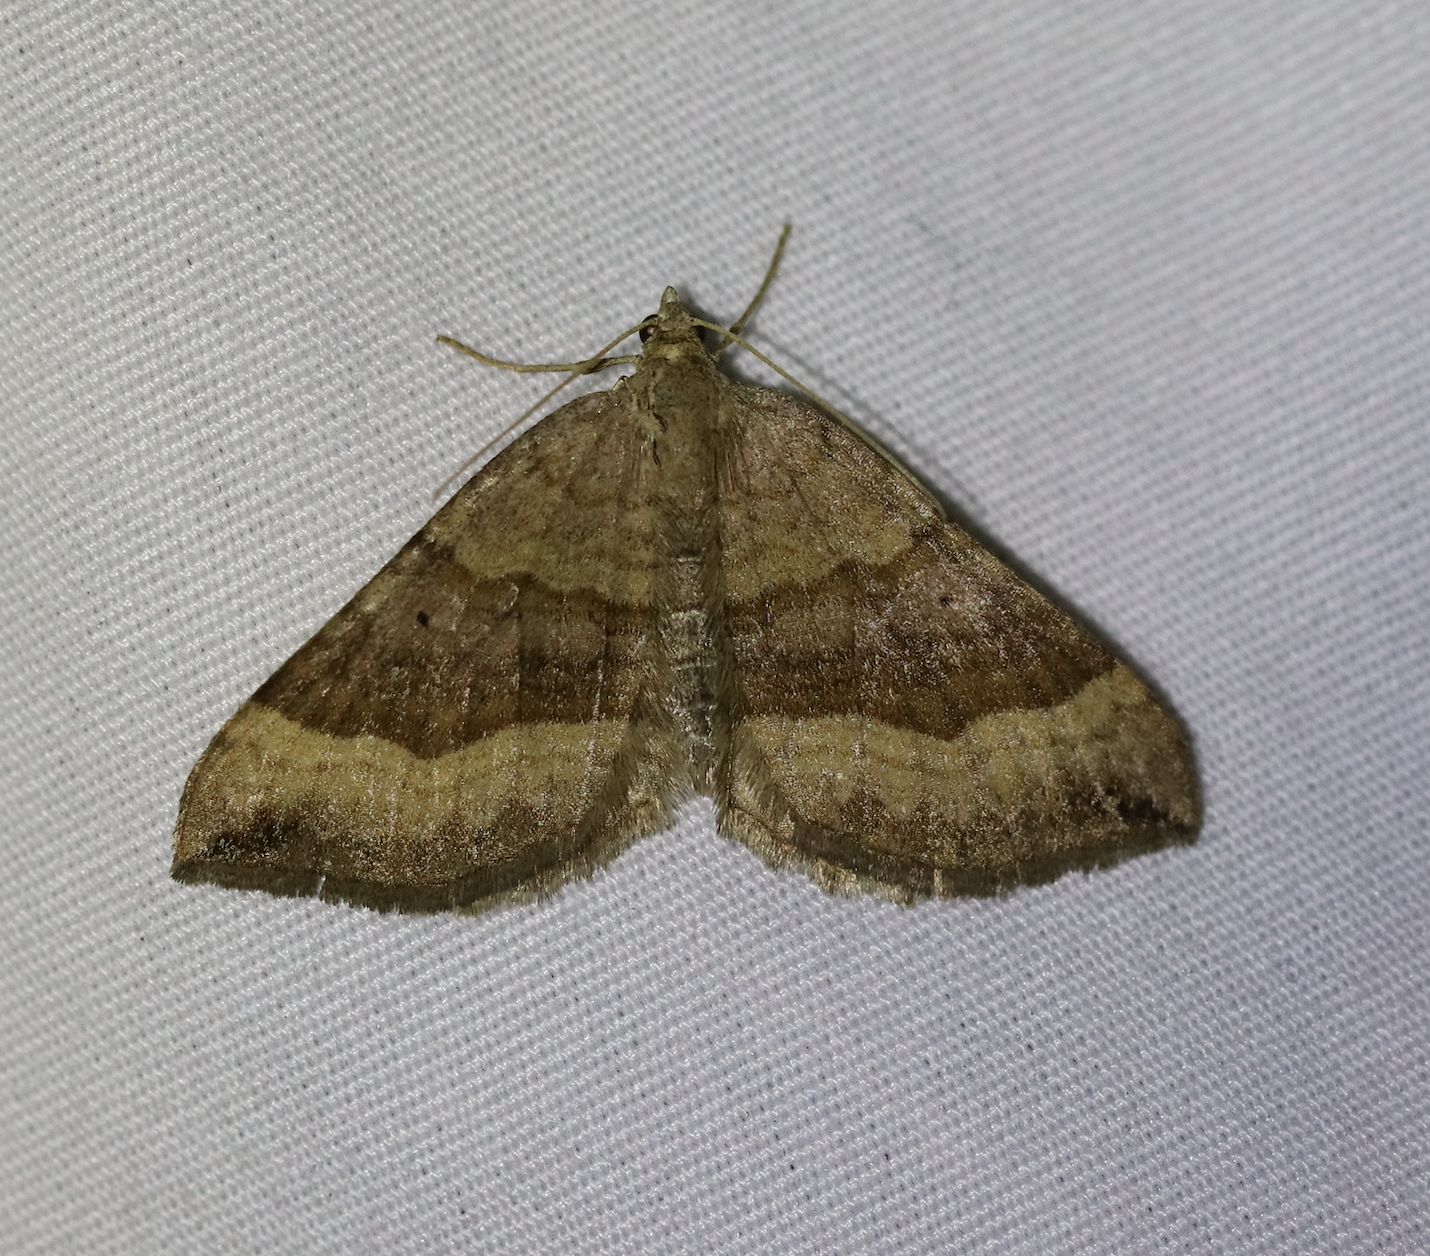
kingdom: Animalia
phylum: Arthropoda
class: Insecta
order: Lepidoptera
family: Geometridae
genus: Scotopteryx
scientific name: Scotopteryx chenopodiata
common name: Shaded broad-bar
